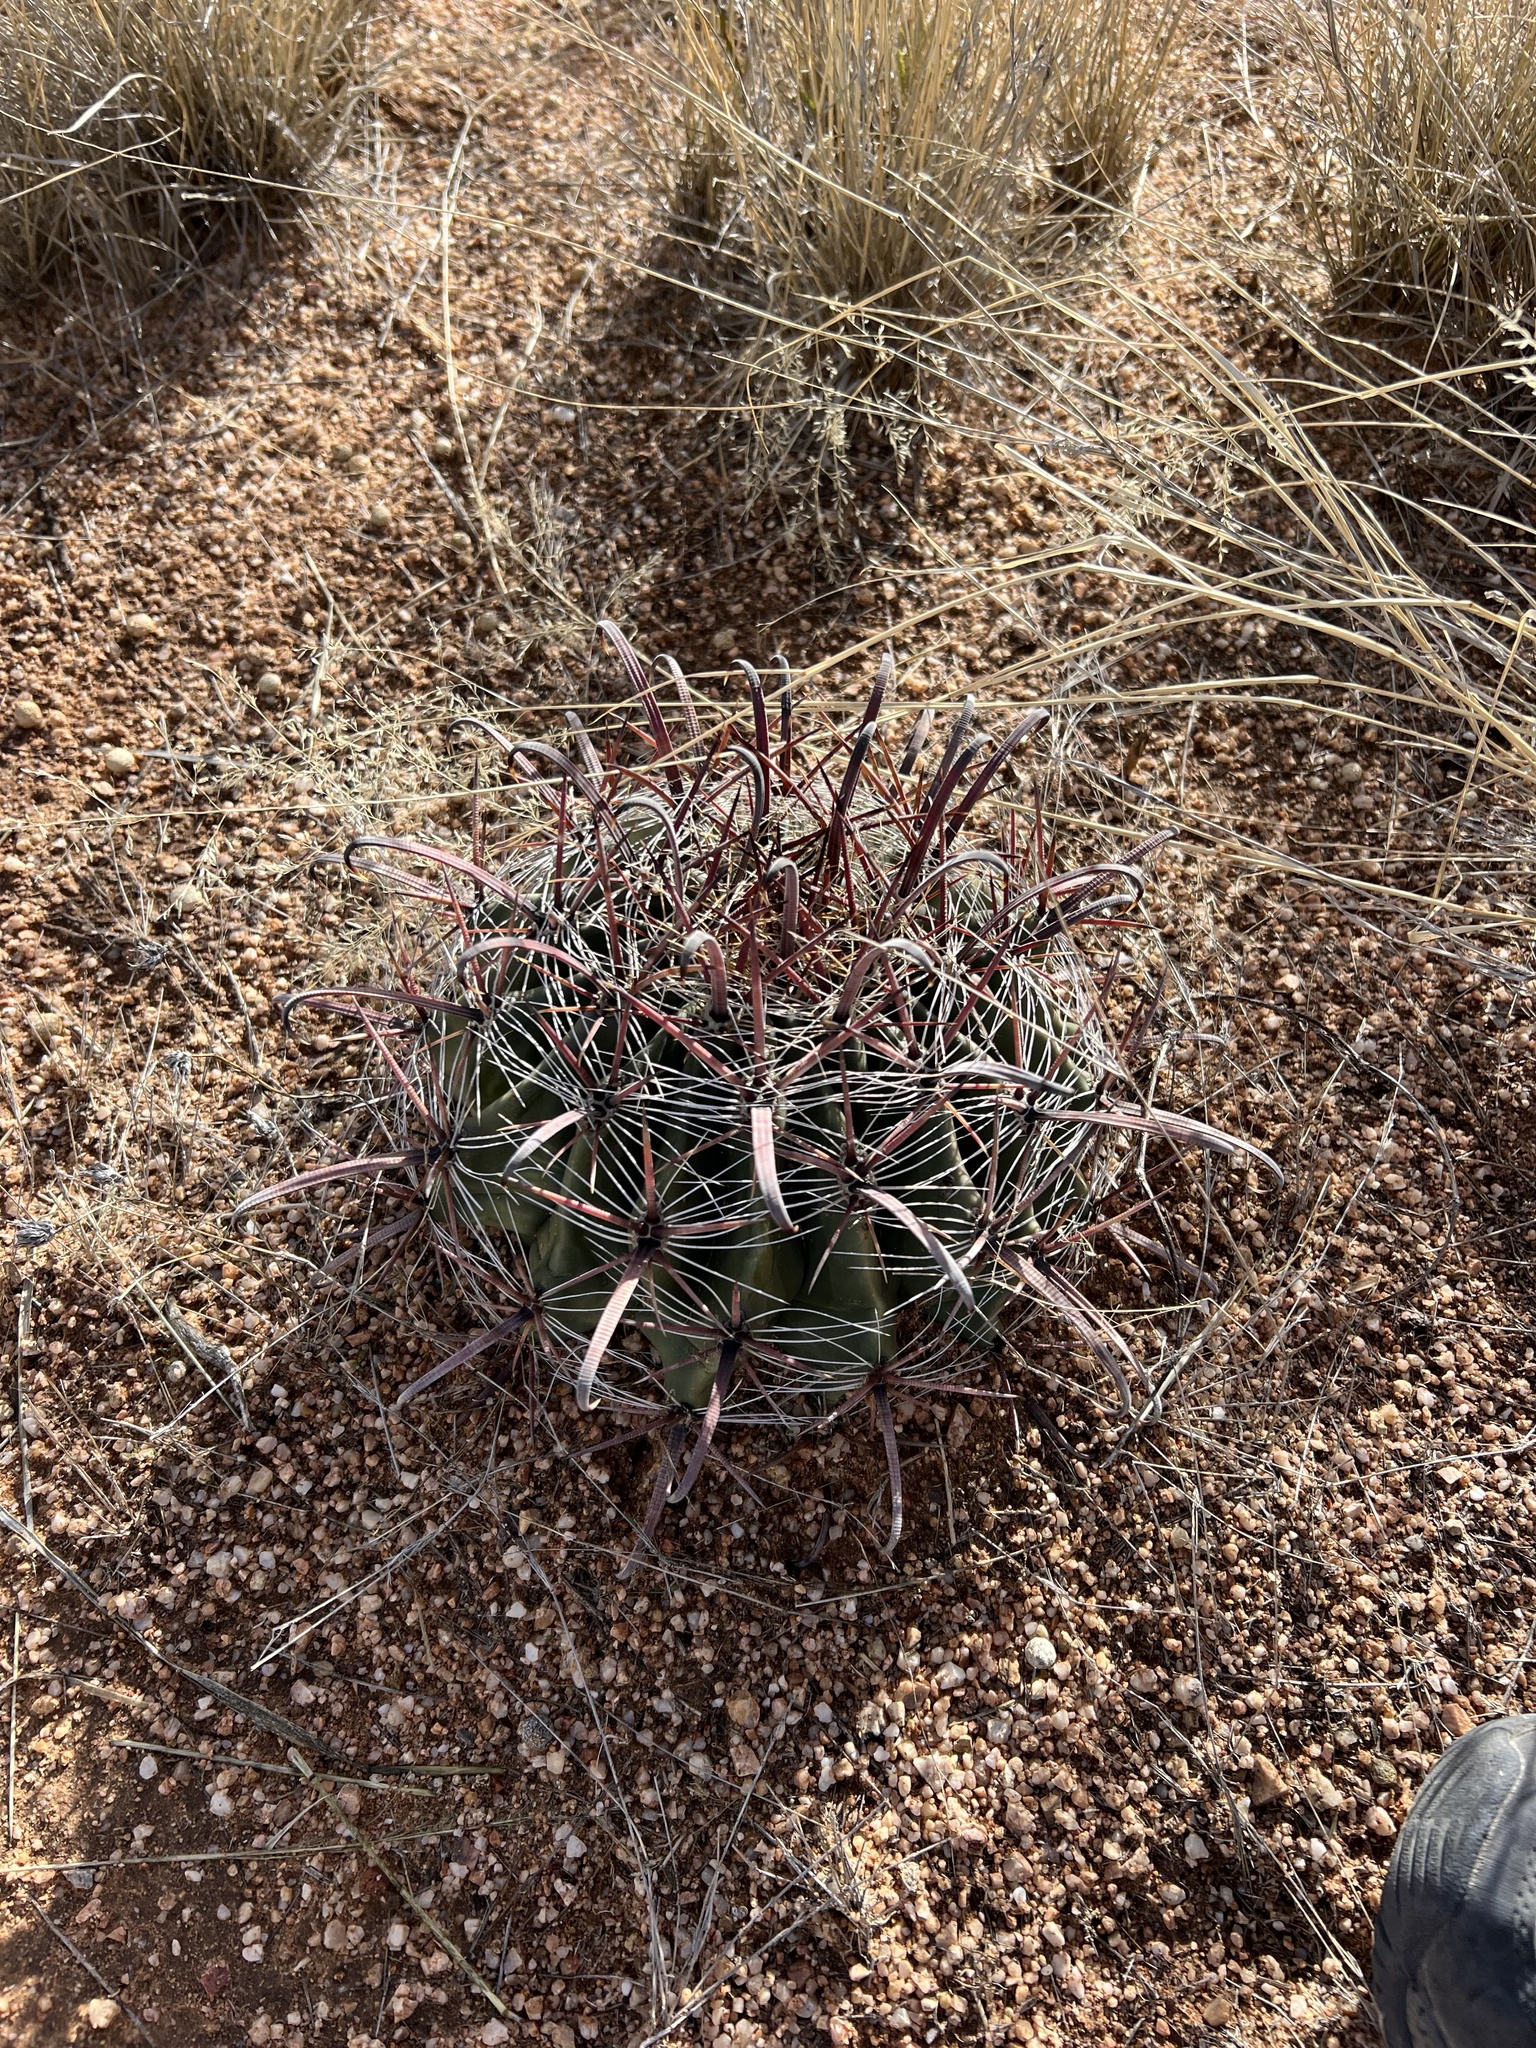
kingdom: Plantae
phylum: Tracheophyta
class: Magnoliopsida
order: Caryophyllales
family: Cactaceae
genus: Ferocactus
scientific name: Ferocactus wislizeni
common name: Candy barrel cactus
